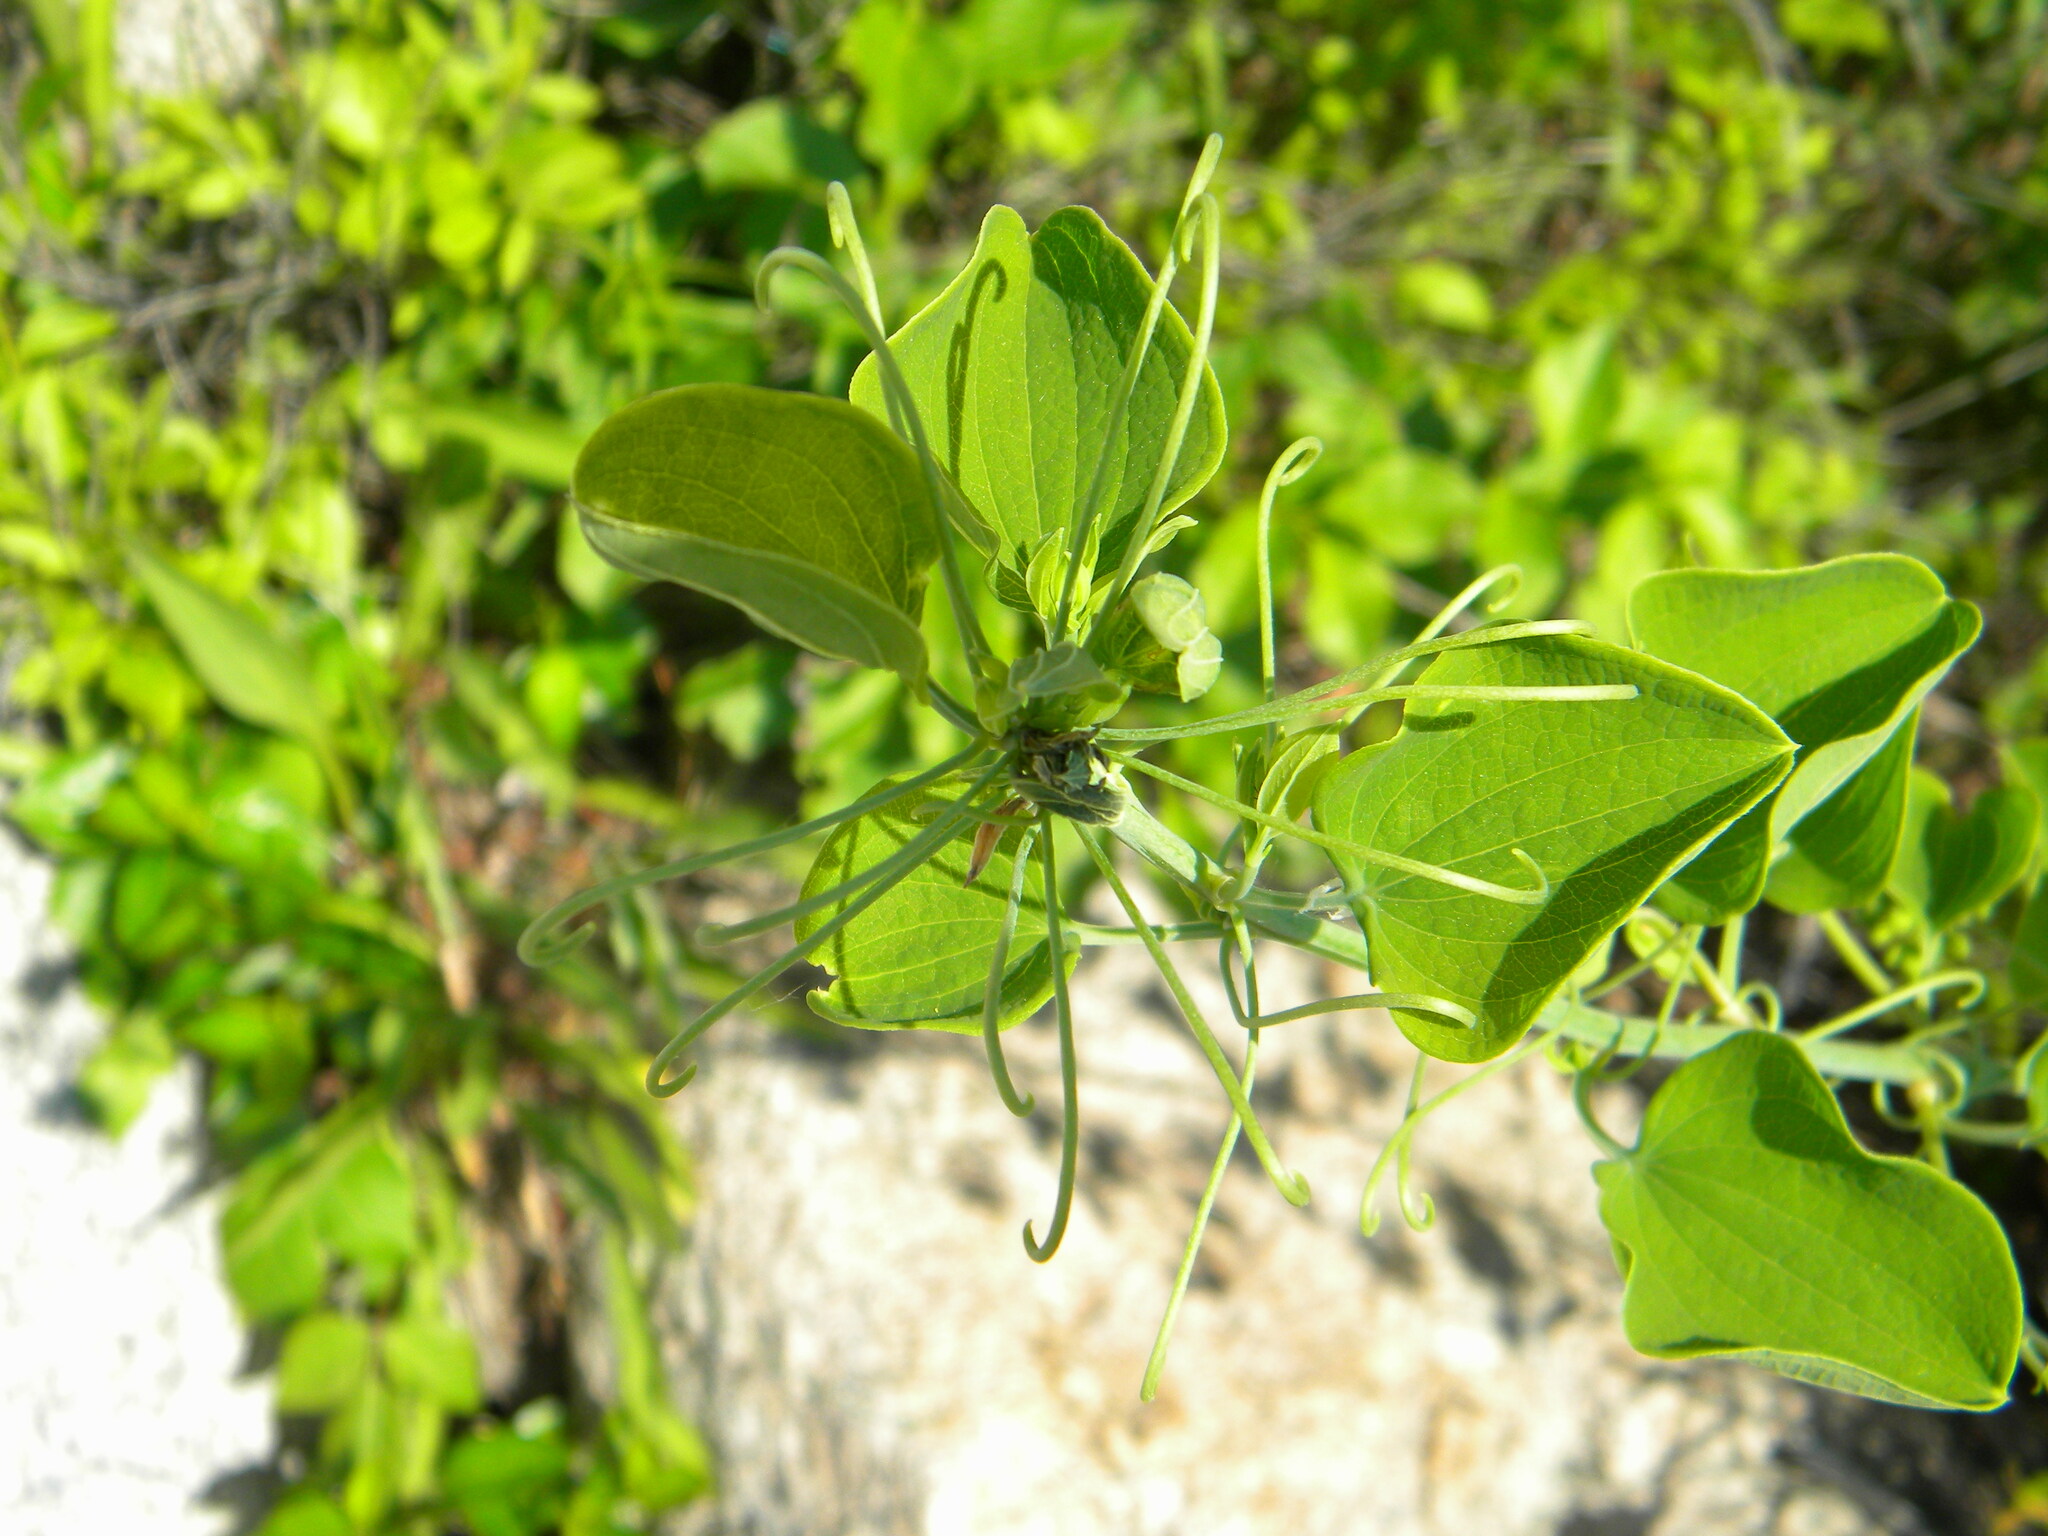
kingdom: Plantae
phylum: Tracheophyta
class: Liliopsida
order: Liliales
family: Smilacaceae
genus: Smilax
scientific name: Smilax herbacea
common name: Jacob's-ladder
